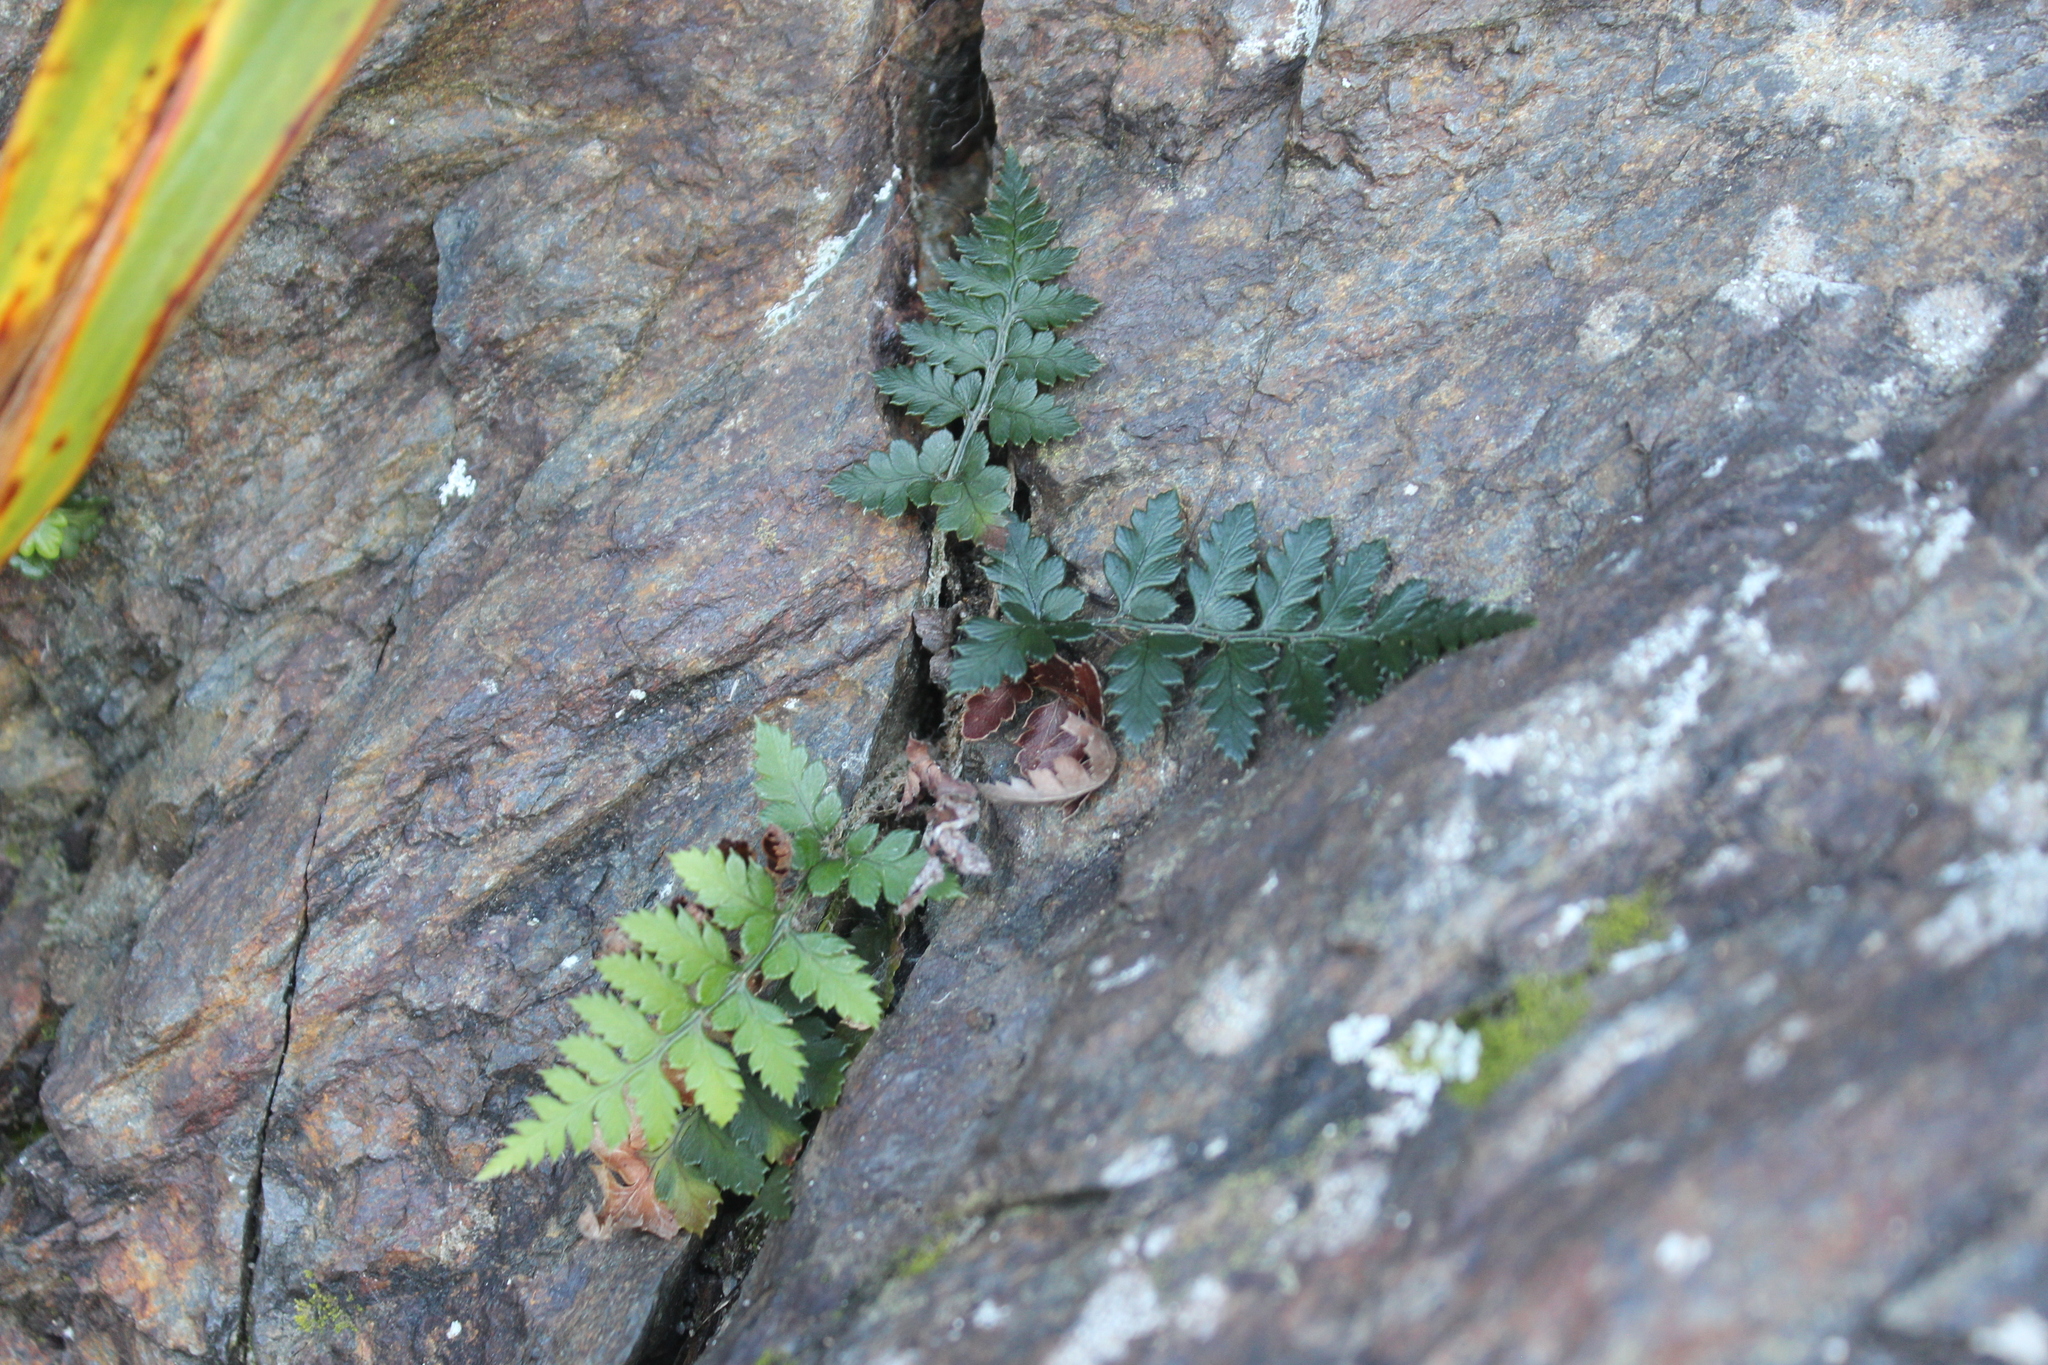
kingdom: Plantae
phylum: Tracheophyta
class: Polypodiopsida
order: Polypodiales
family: Dryopteridaceae
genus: Polystichum
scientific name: Polystichum oculatum
